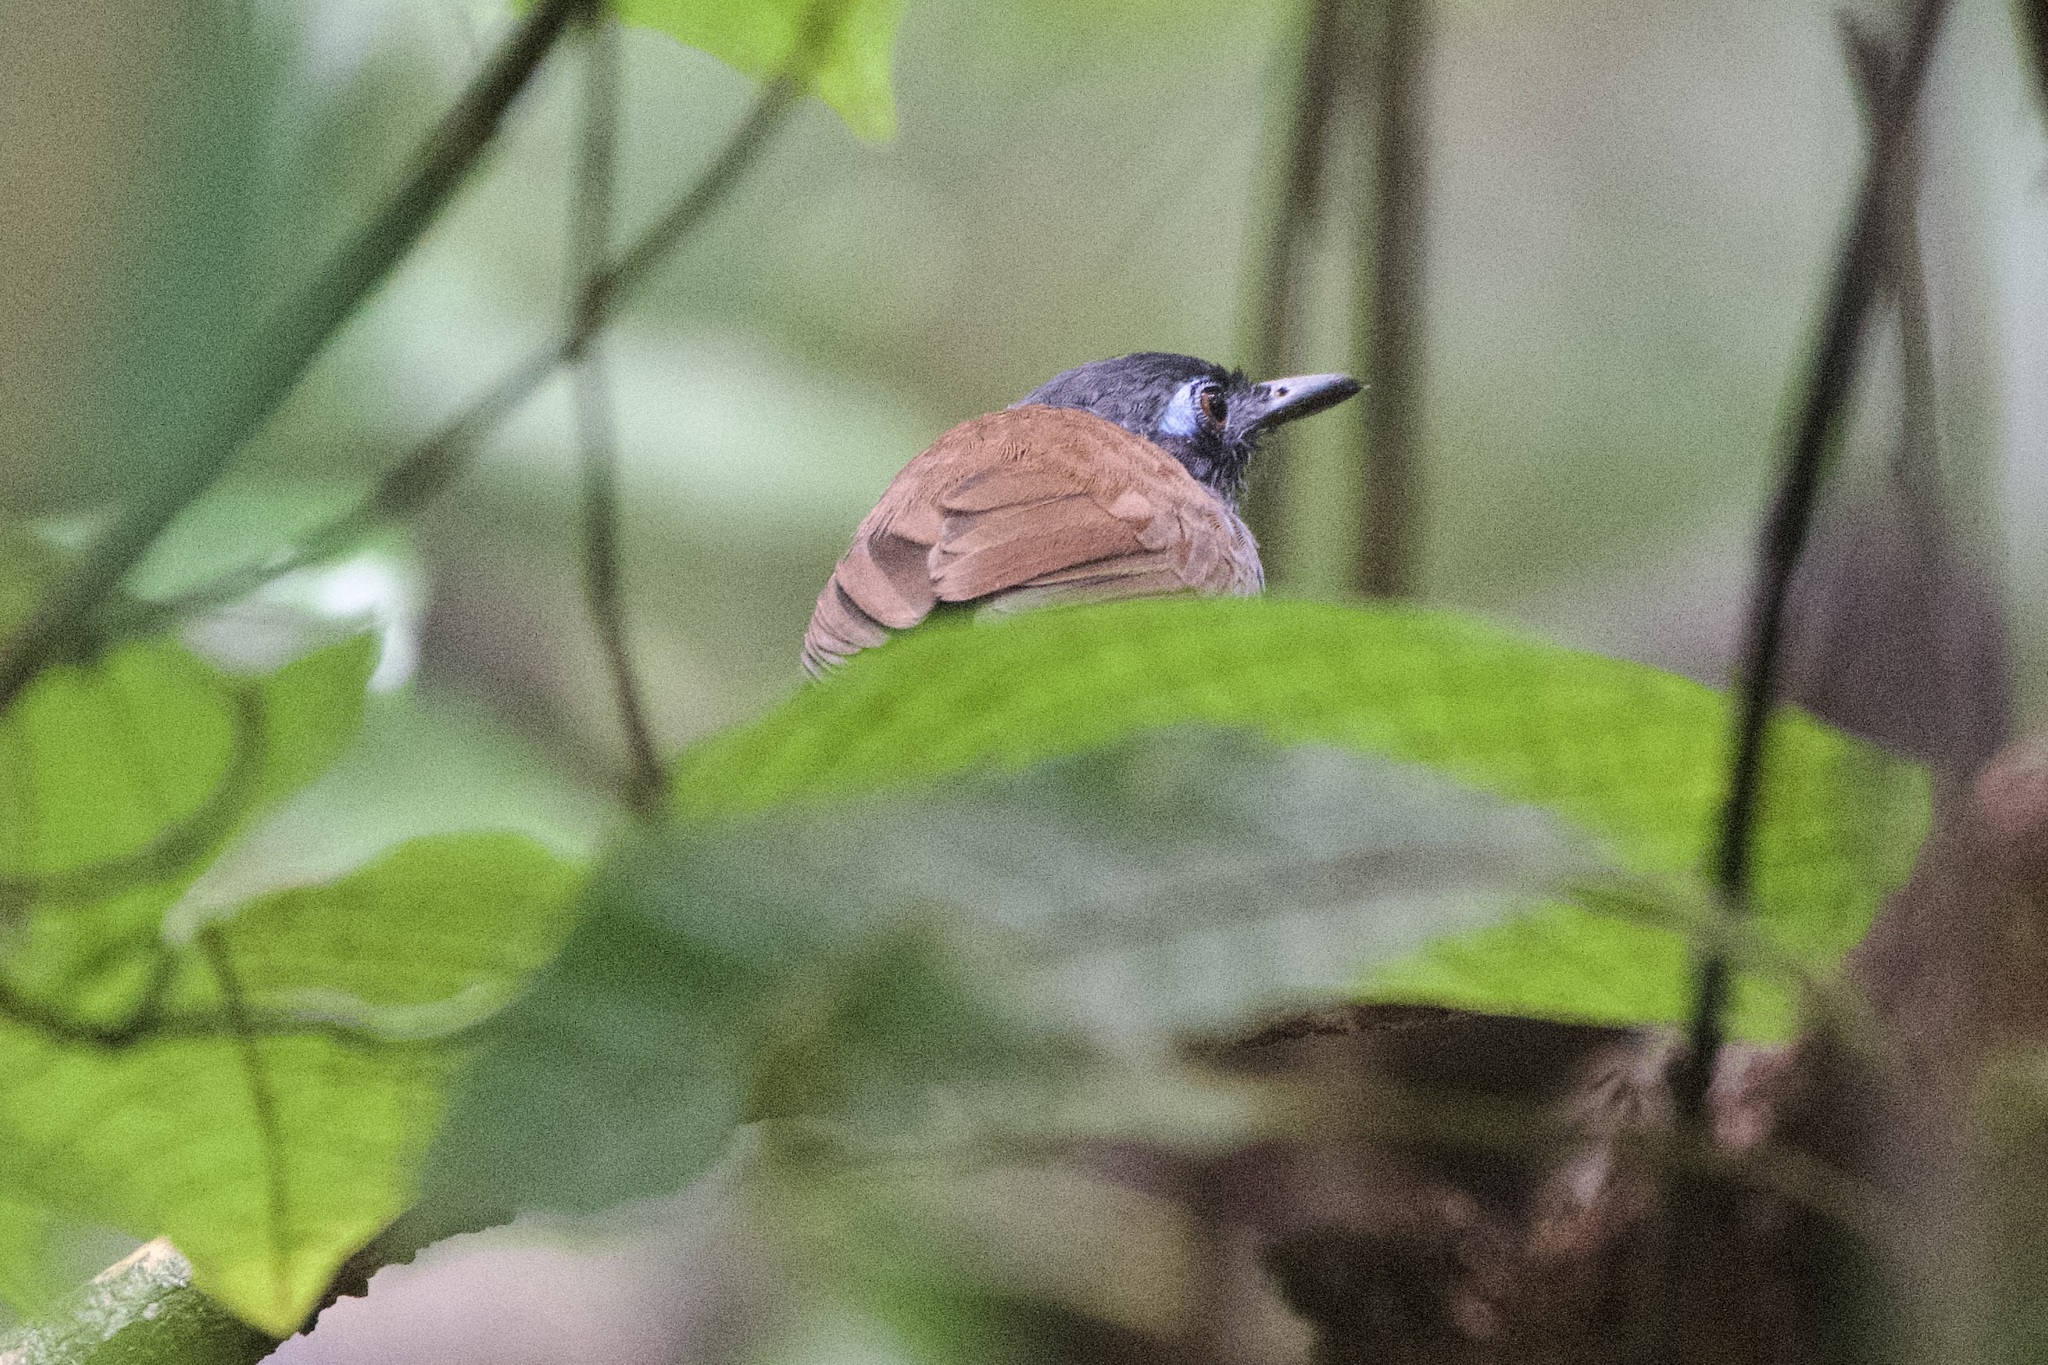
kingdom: Animalia
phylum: Chordata
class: Aves
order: Passeriformes
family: Thamnophilidae
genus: Myrmeciza
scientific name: Myrmeciza exsul
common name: Chestnut-backed antbird
